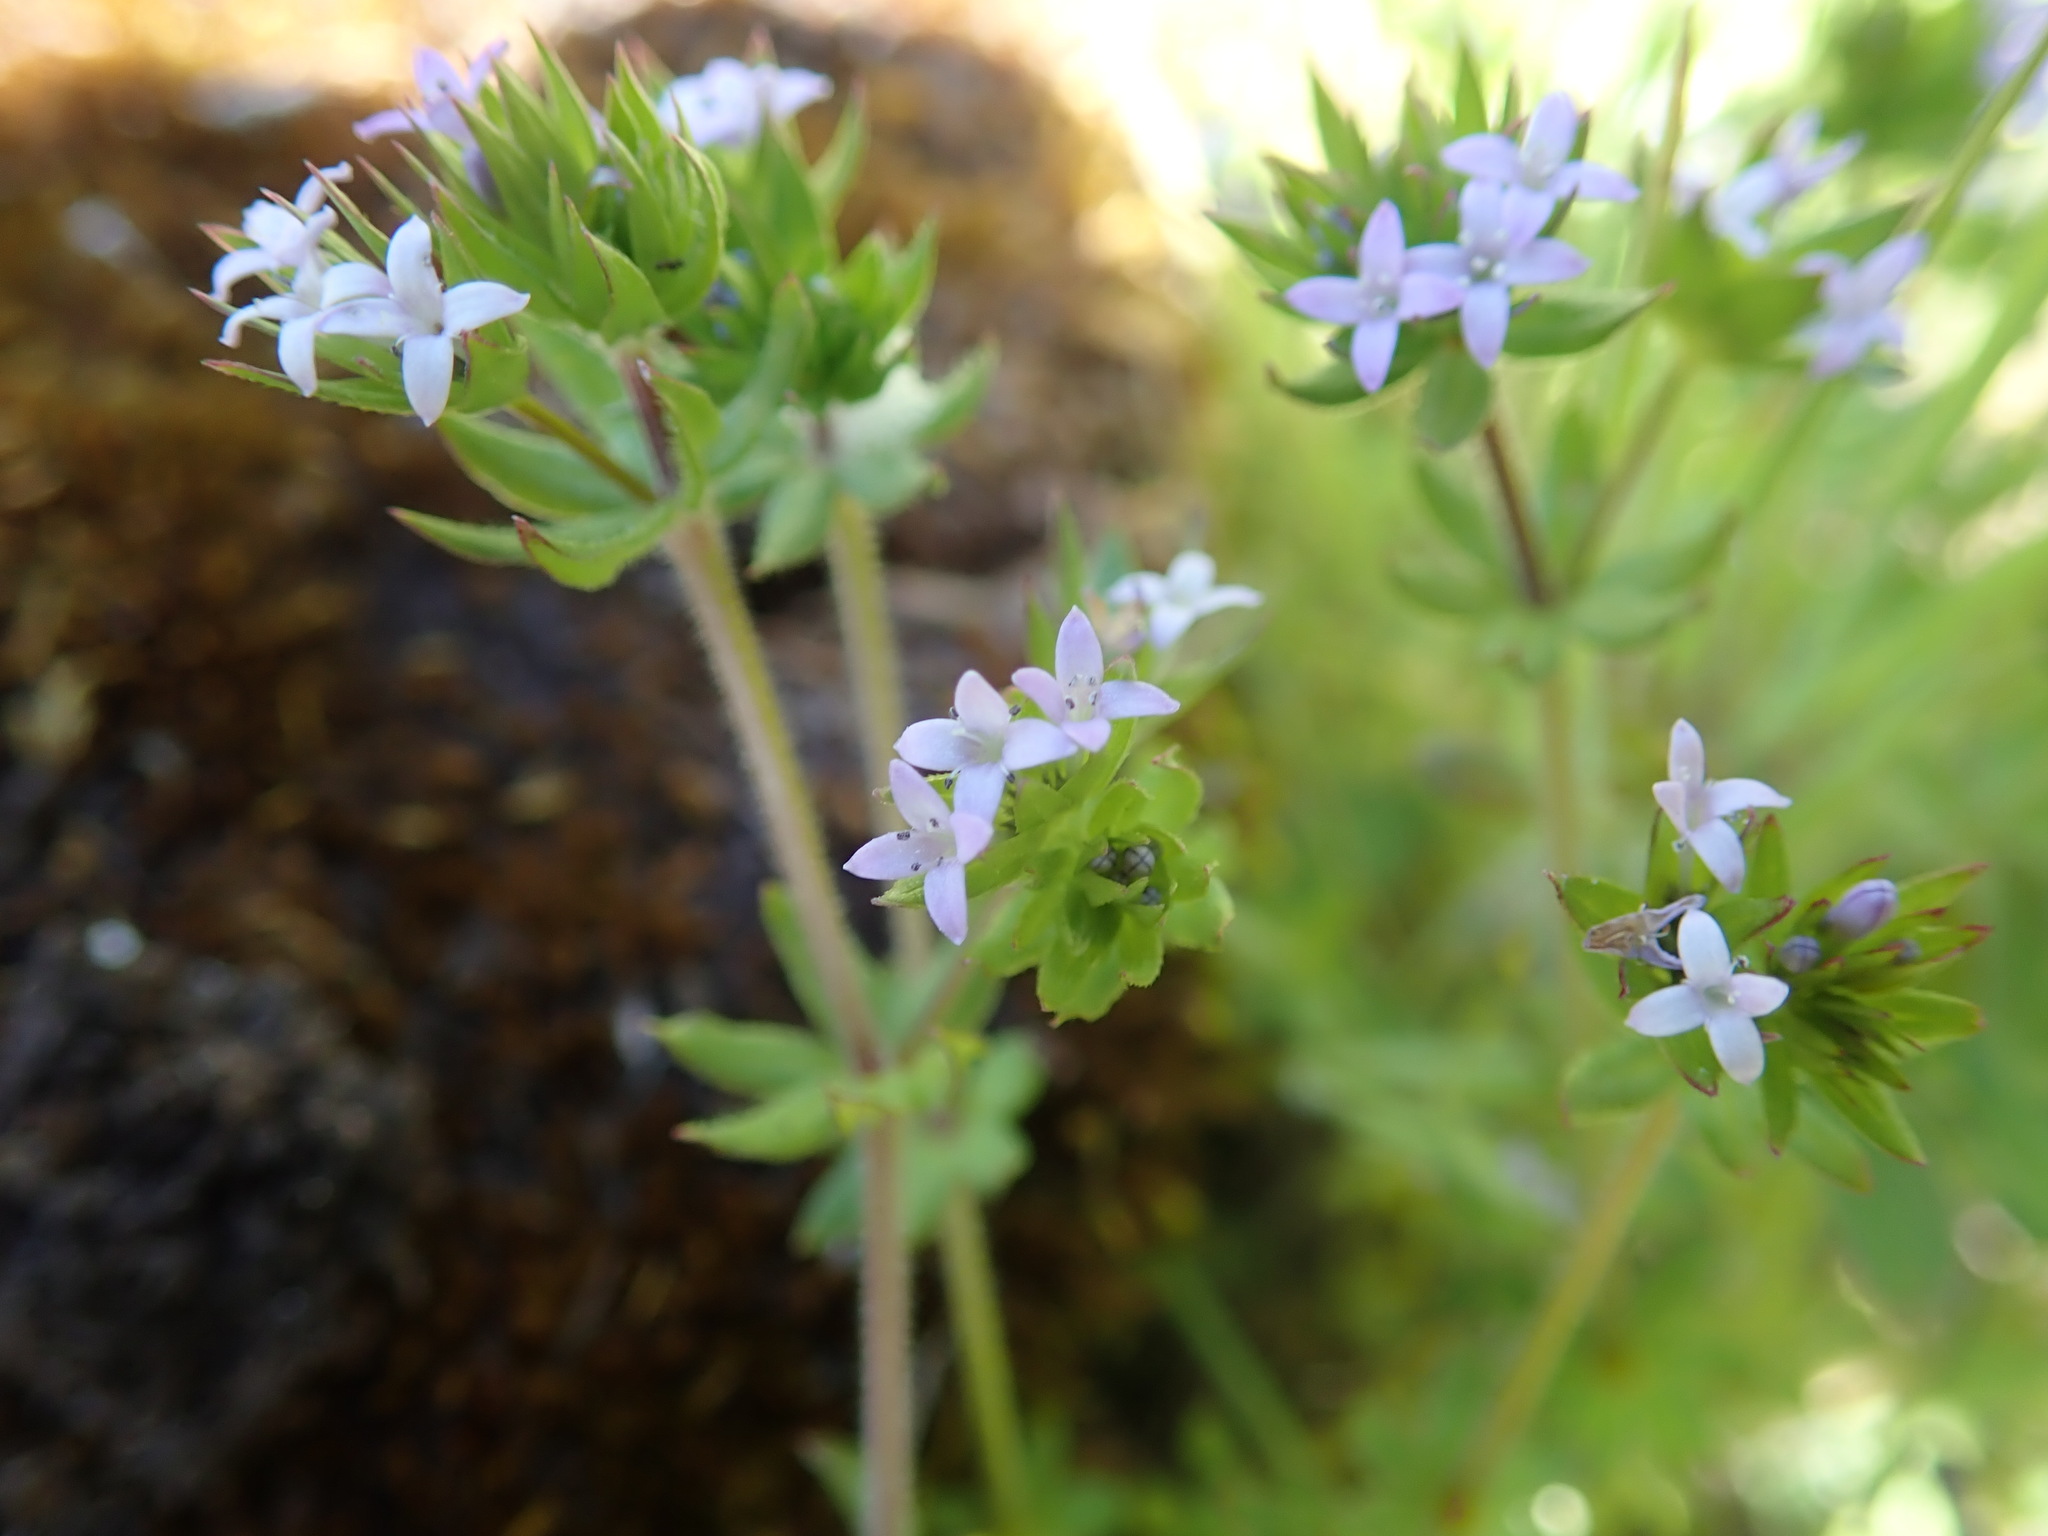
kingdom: Plantae
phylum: Tracheophyta
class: Magnoliopsida
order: Gentianales
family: Rubiaceae
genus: Sherardia
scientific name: Sherardia arvensis
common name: Field madder
